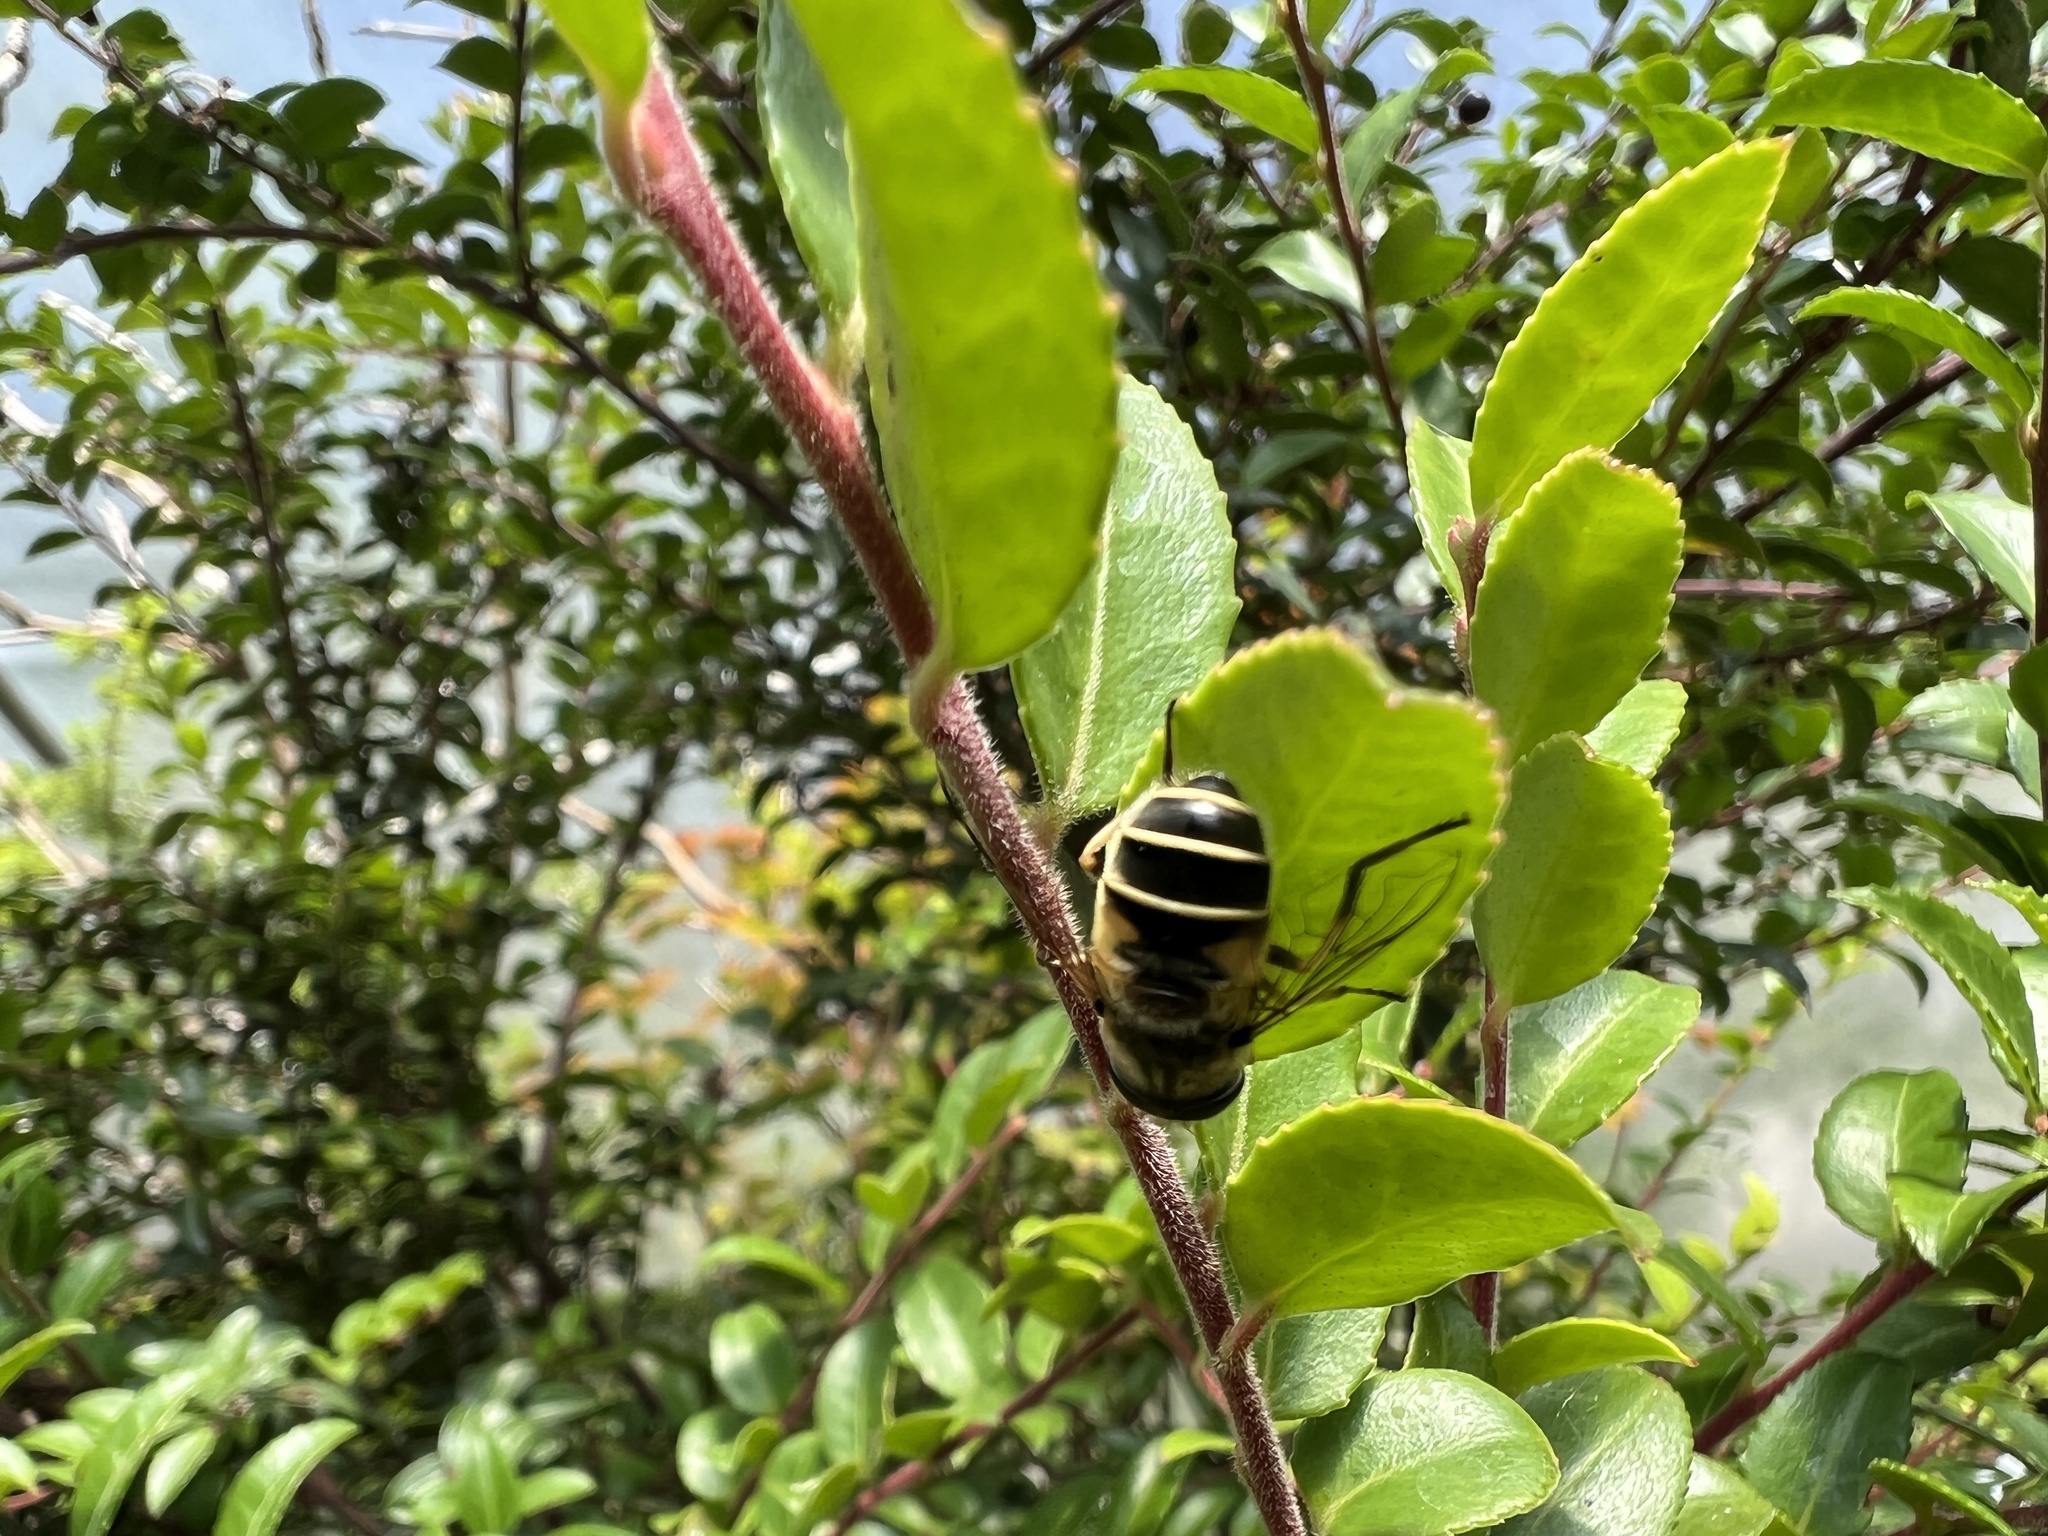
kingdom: Animalia
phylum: Arthropoda
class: Insecta
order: Diptera
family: Syrphidae
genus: Eristalis
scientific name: Eristalis hirta
